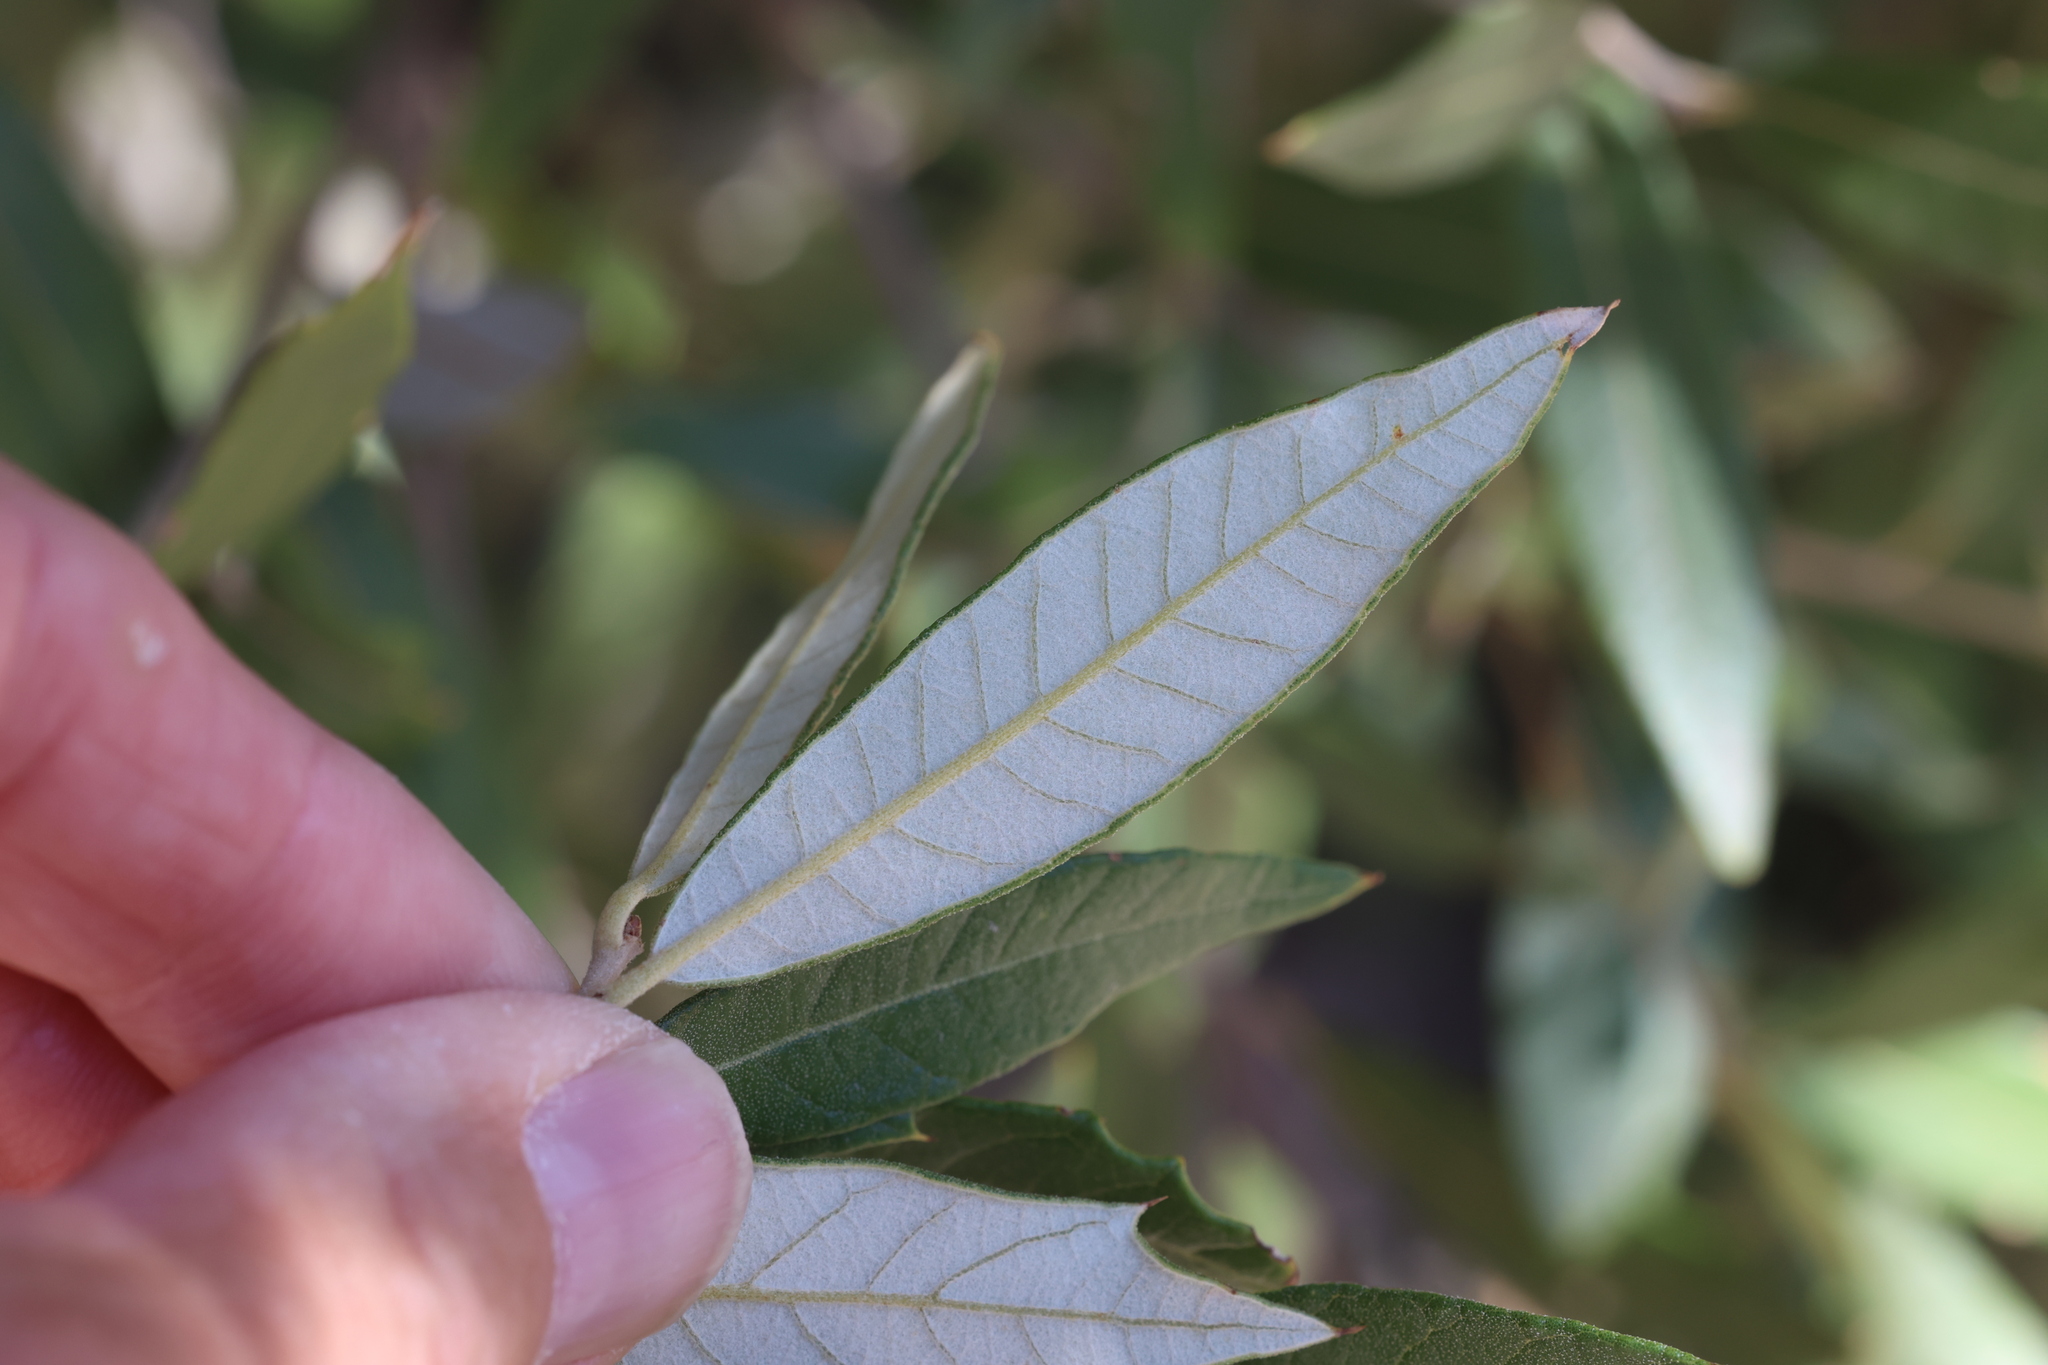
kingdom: Plantae
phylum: Tracheophyta
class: Magnoliopsida
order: Fagales
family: Fagaceae
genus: Quercus
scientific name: Quercus hypoleucoides
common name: Silverleaf oak
